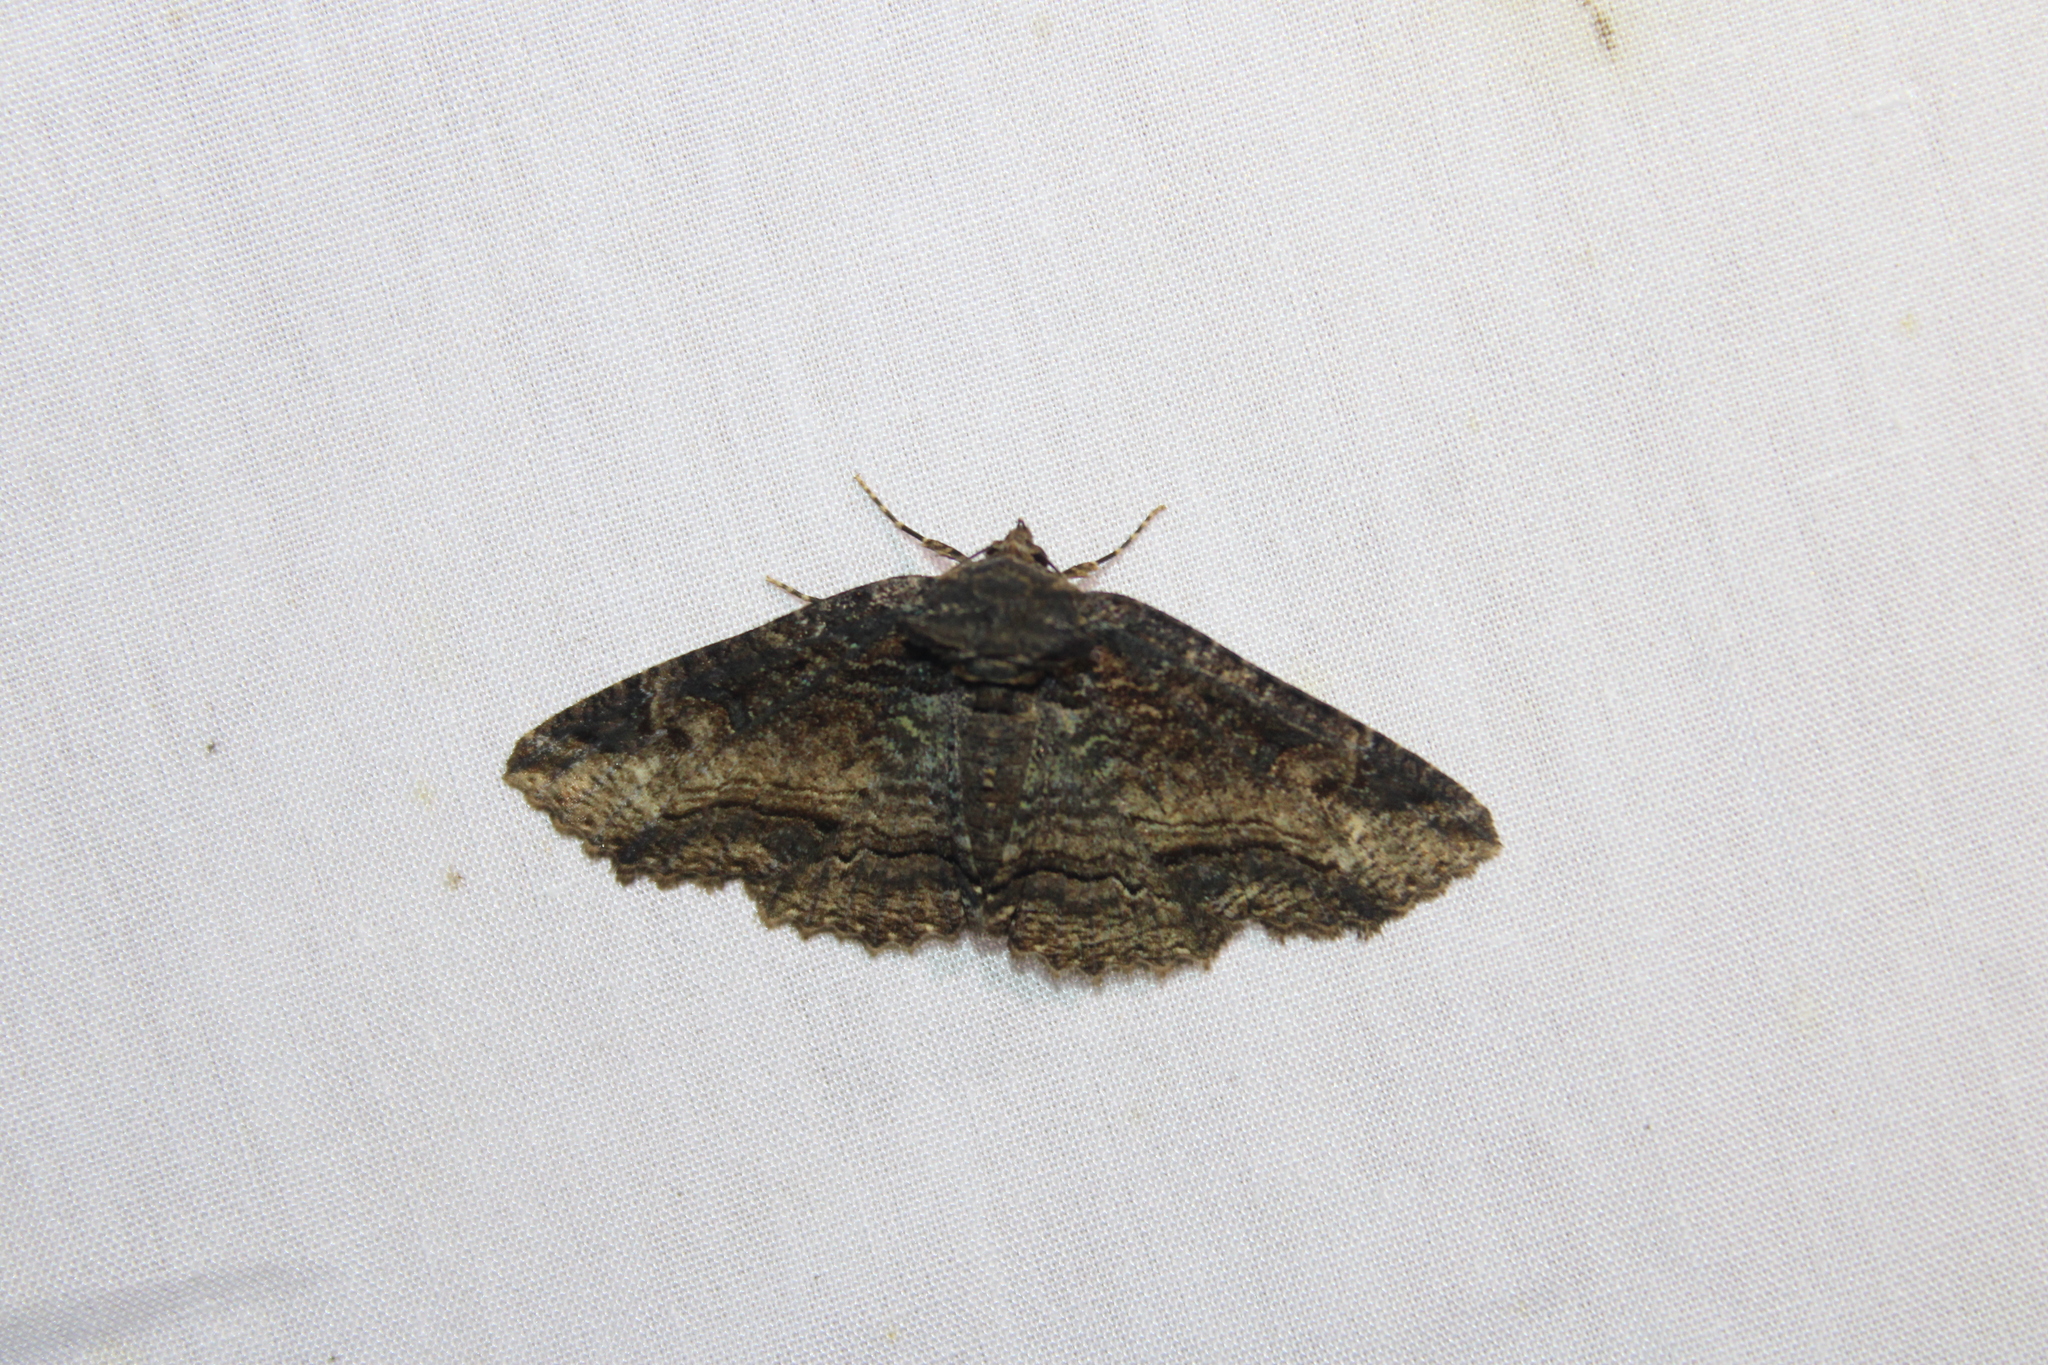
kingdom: Animalia
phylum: Arthropoda
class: Insecta
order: Lepidoptera
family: Erebidae
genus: Zale
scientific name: Zale minerea
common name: Colorful zale moth
